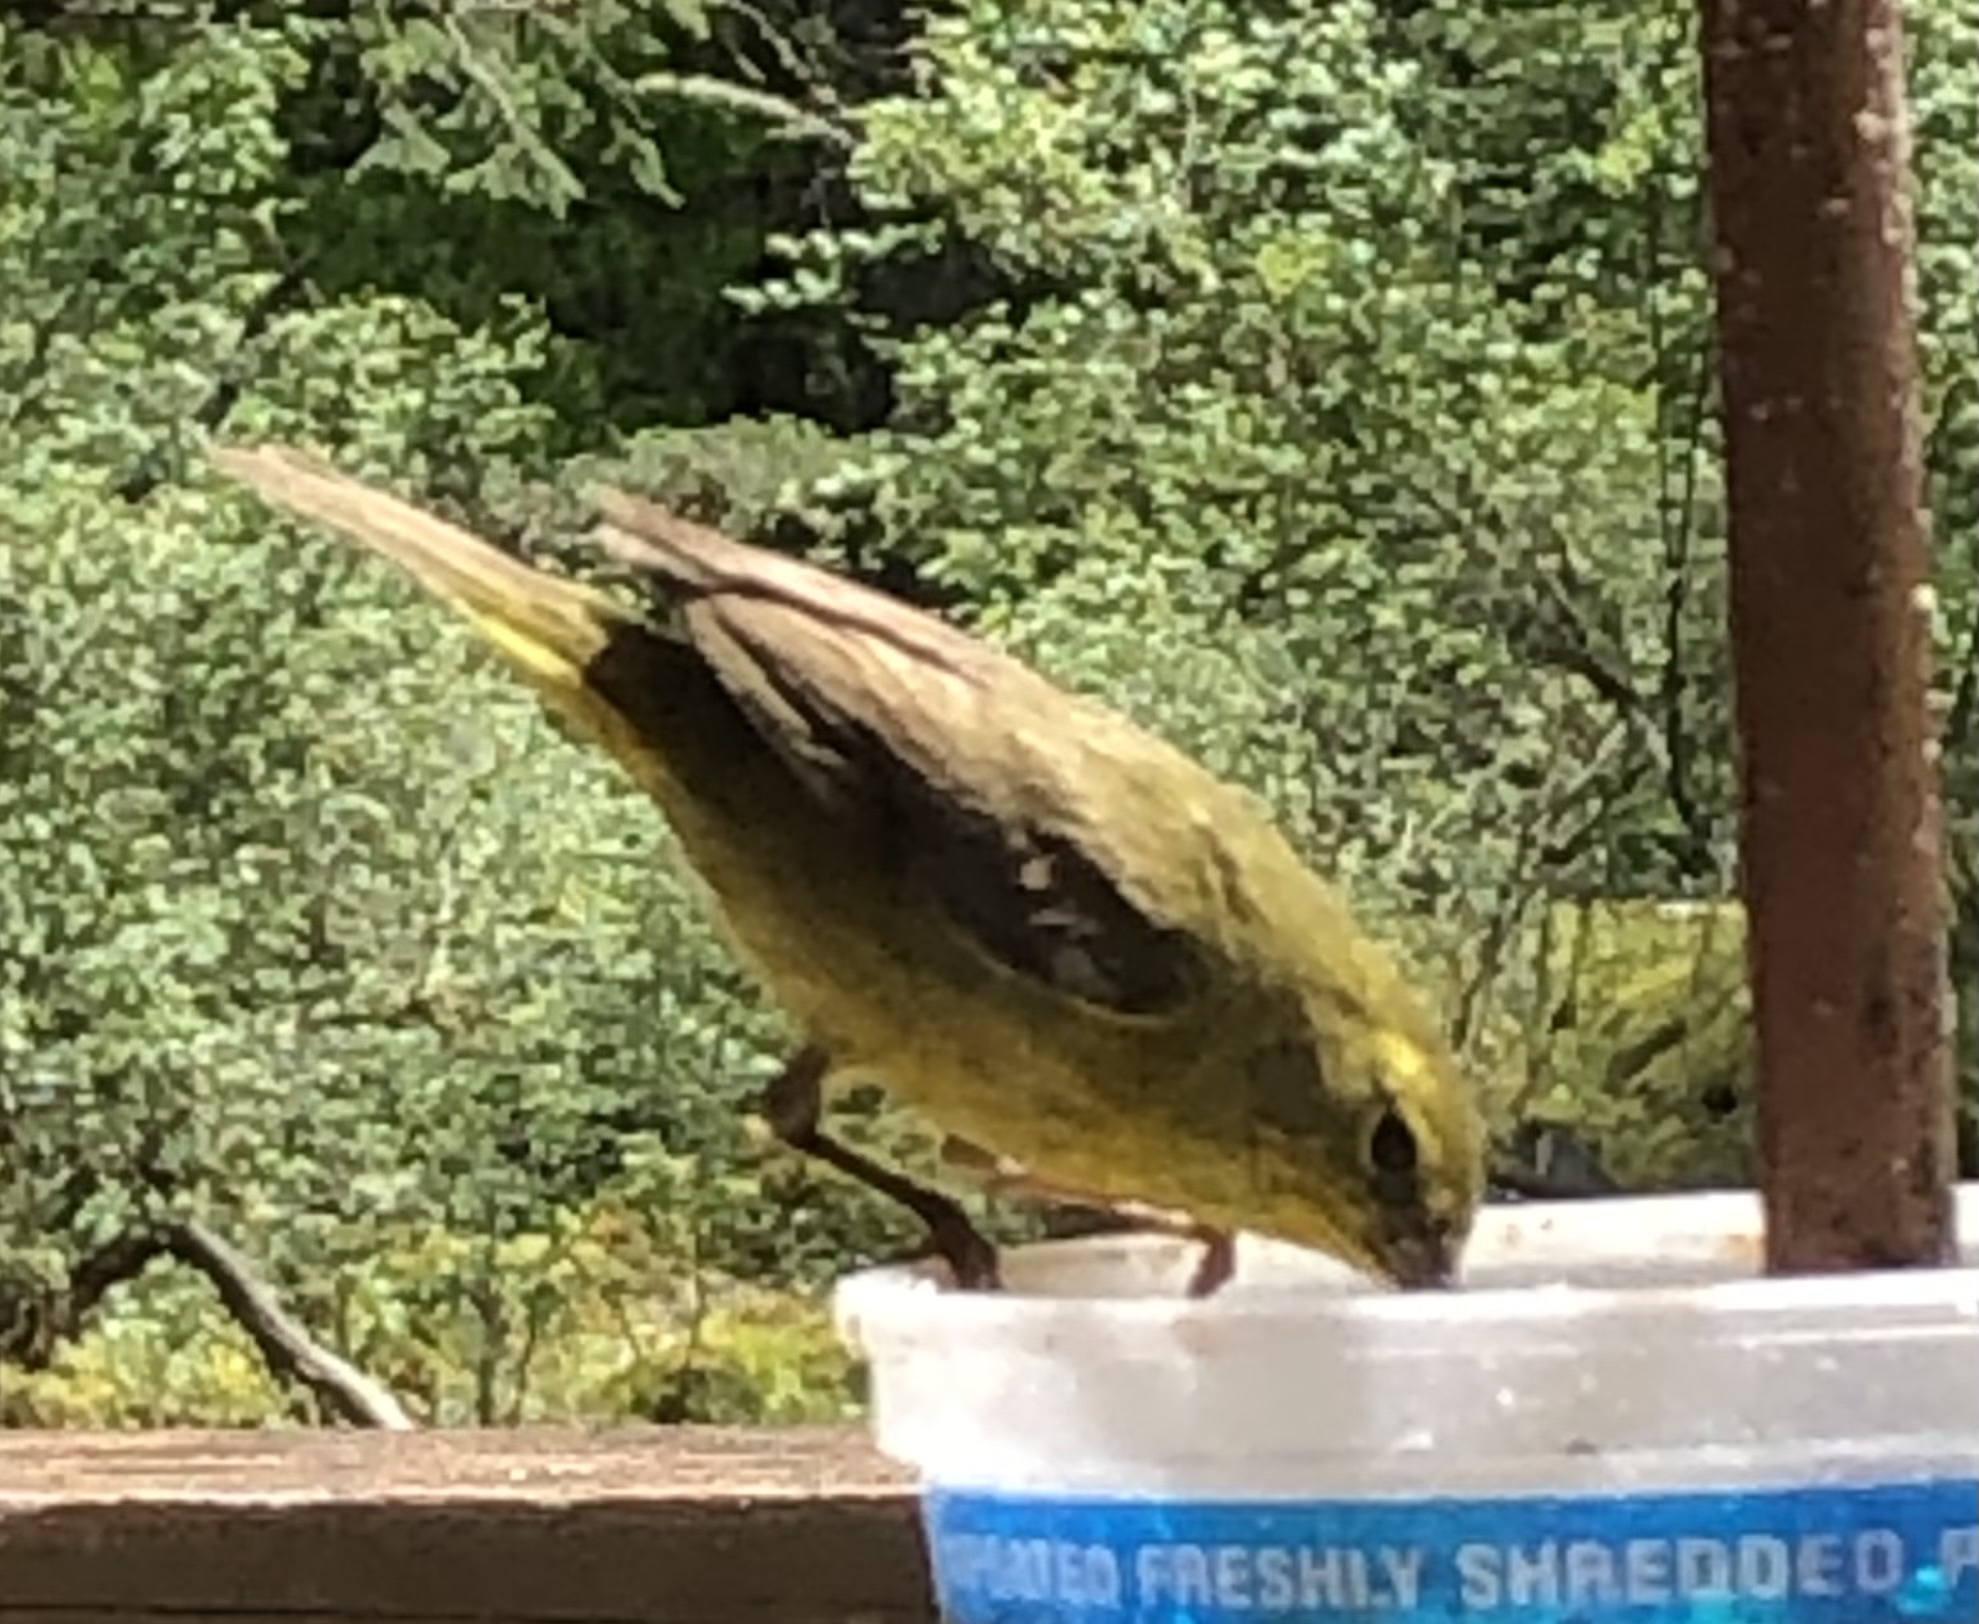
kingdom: Animalia
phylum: Chordata
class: Aves
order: Passeriformes
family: Parulidae
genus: Leiothlypis
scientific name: Leiothlypis celata
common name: Orange-crowned warbler
